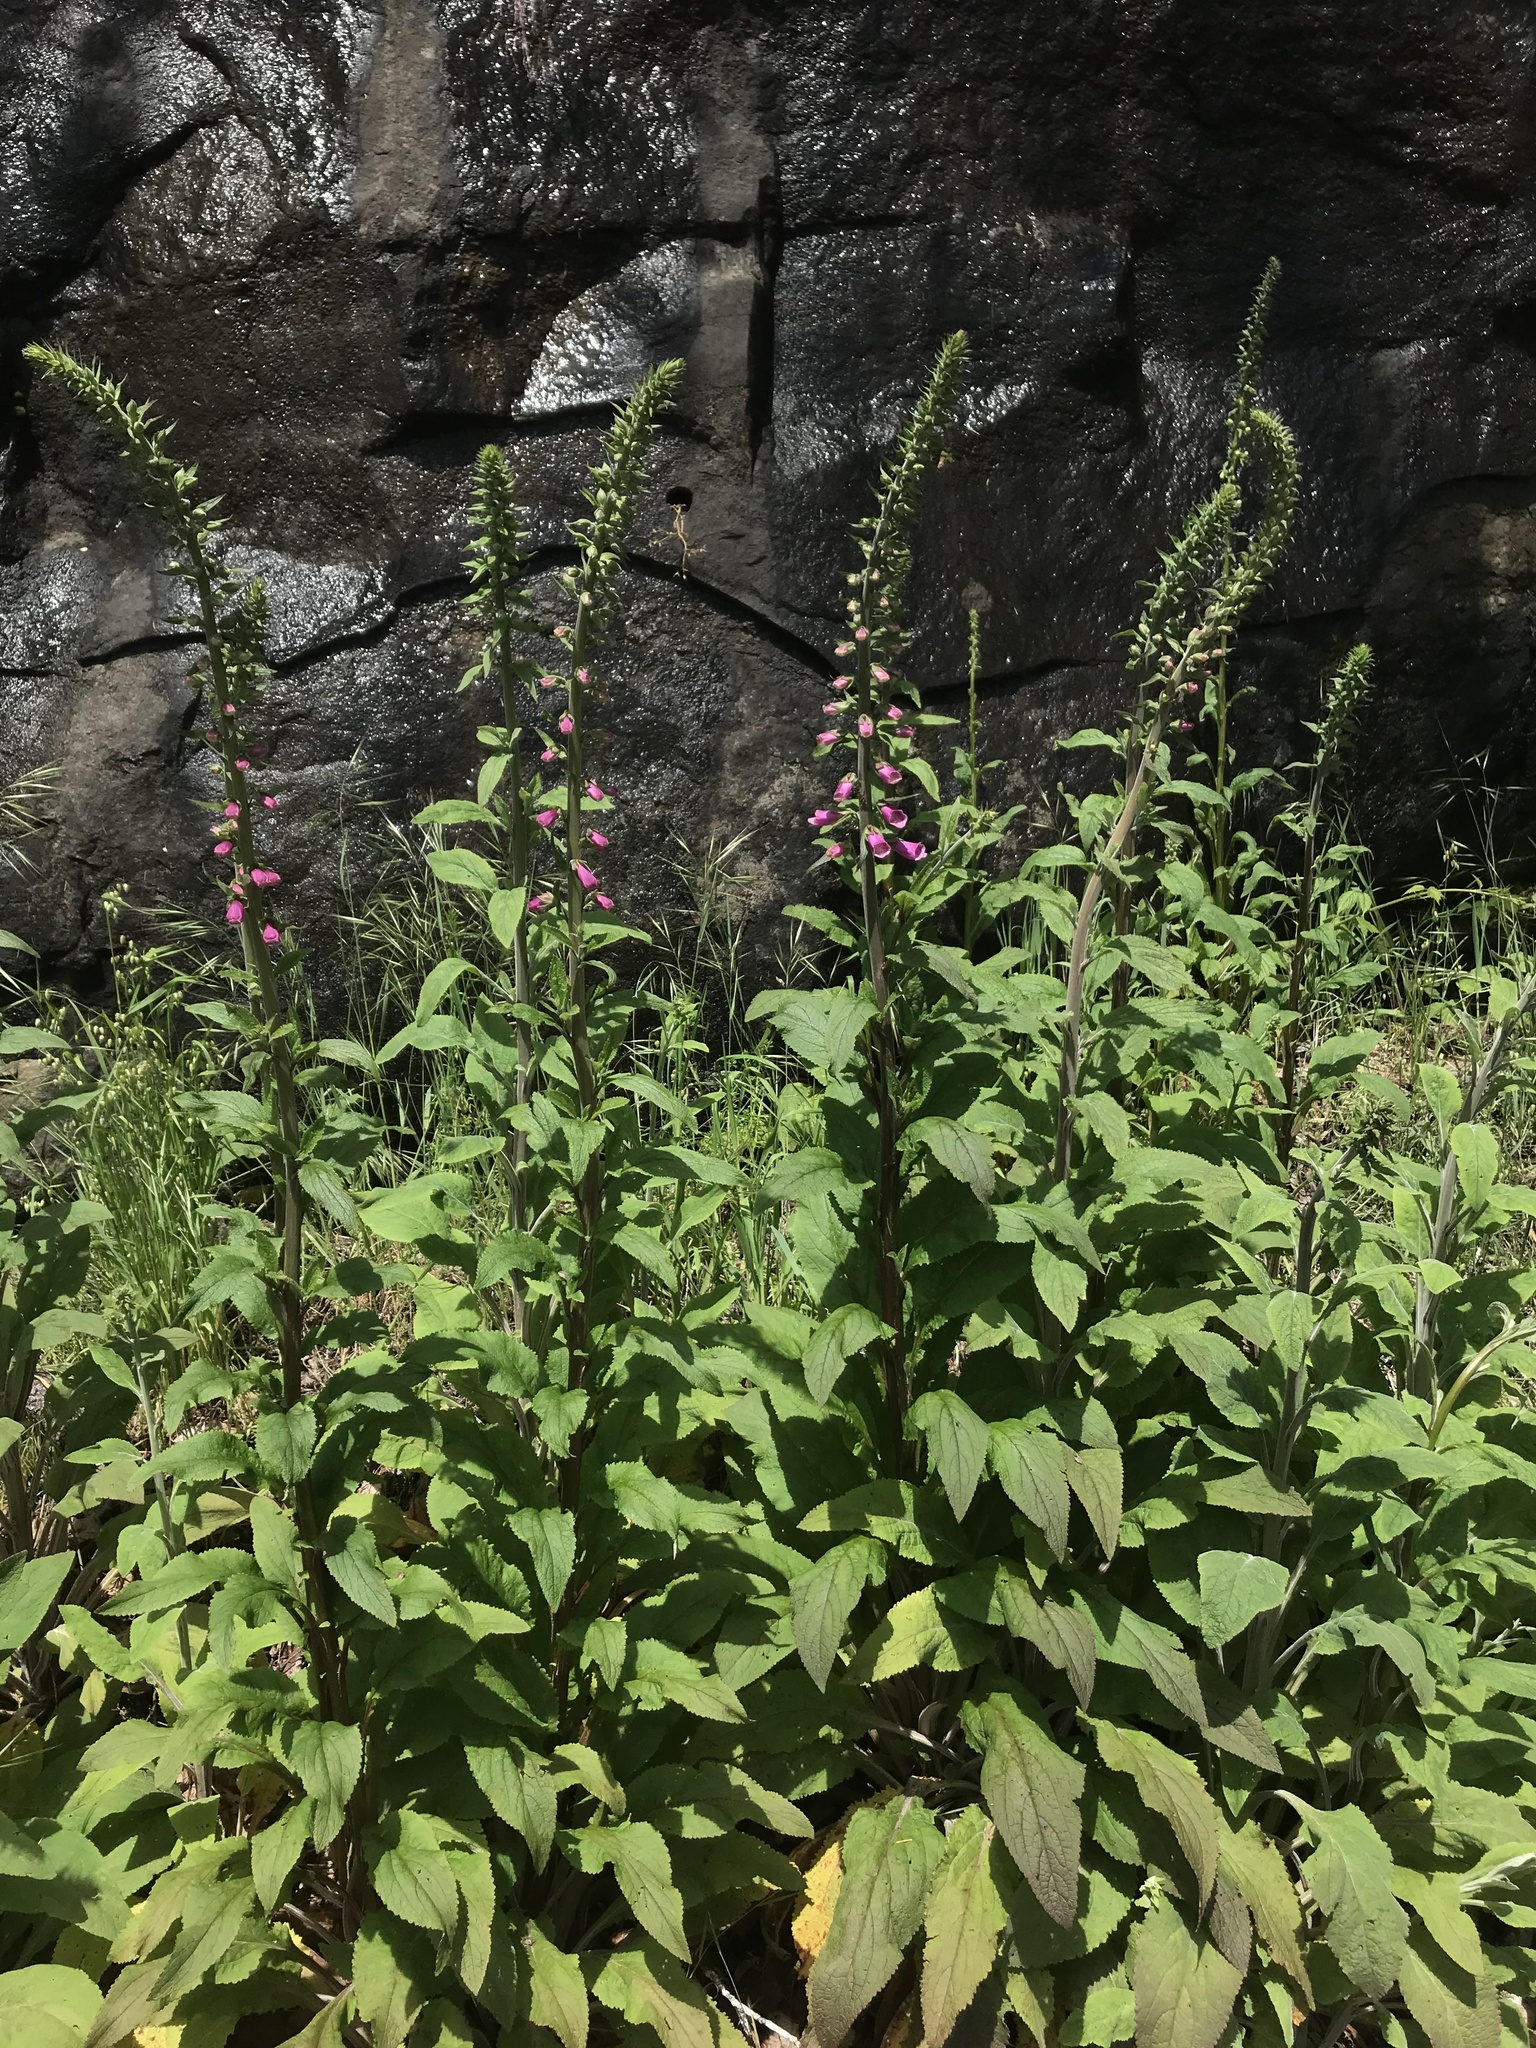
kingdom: Plantae
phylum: Tracheophyta
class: Magnoliopsida
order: Lamiales
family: Plantaginaceae
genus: Digitalis
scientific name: Digitalis purpurea
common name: Foxglove
